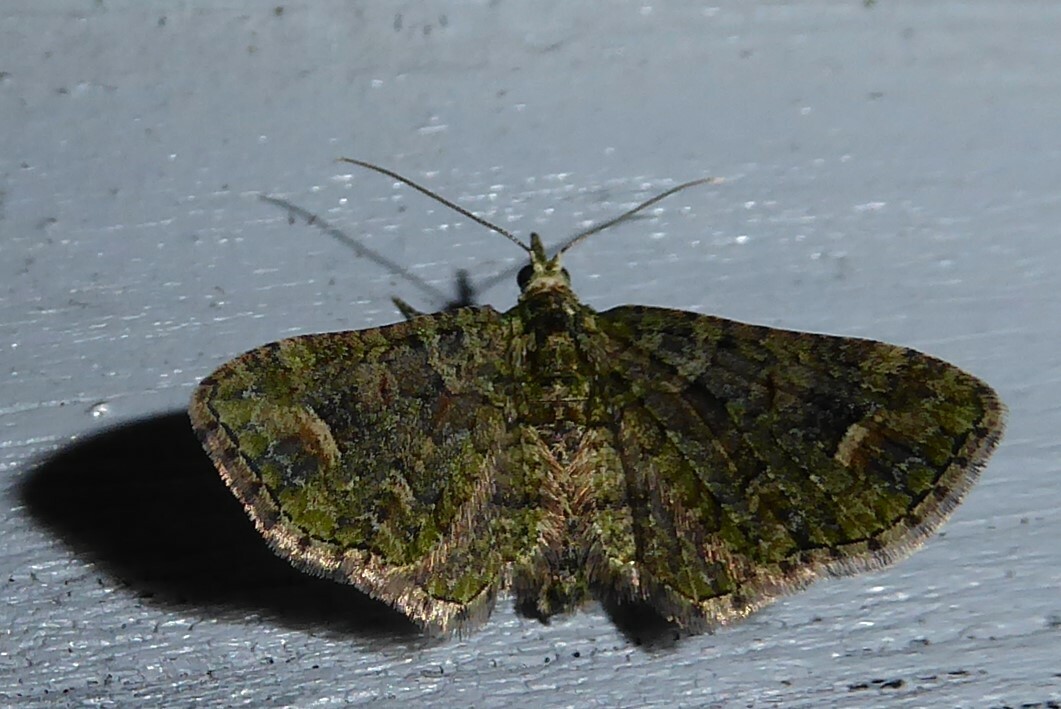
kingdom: Animalia
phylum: Arthropoda
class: Insecta
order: Lepidoptera
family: Geometridae
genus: Idaea
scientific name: Idaea mutanda
